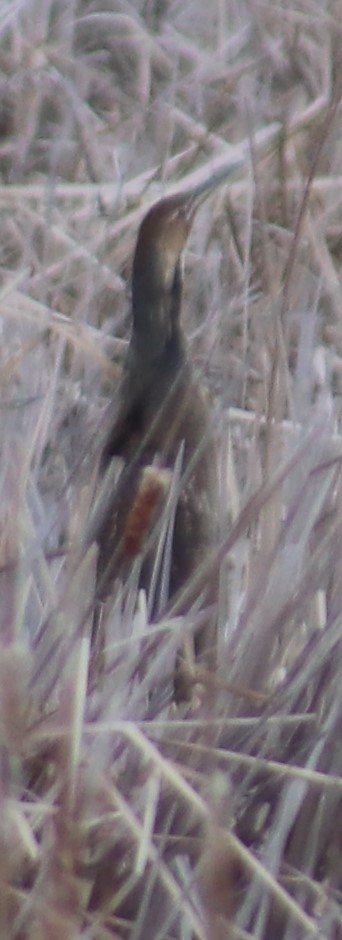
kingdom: Animalia
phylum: Chordata
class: Aves
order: Pelecaniformes
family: Ardeidae
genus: Botaurus
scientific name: Botaurus lentiginosus
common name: American bittern
